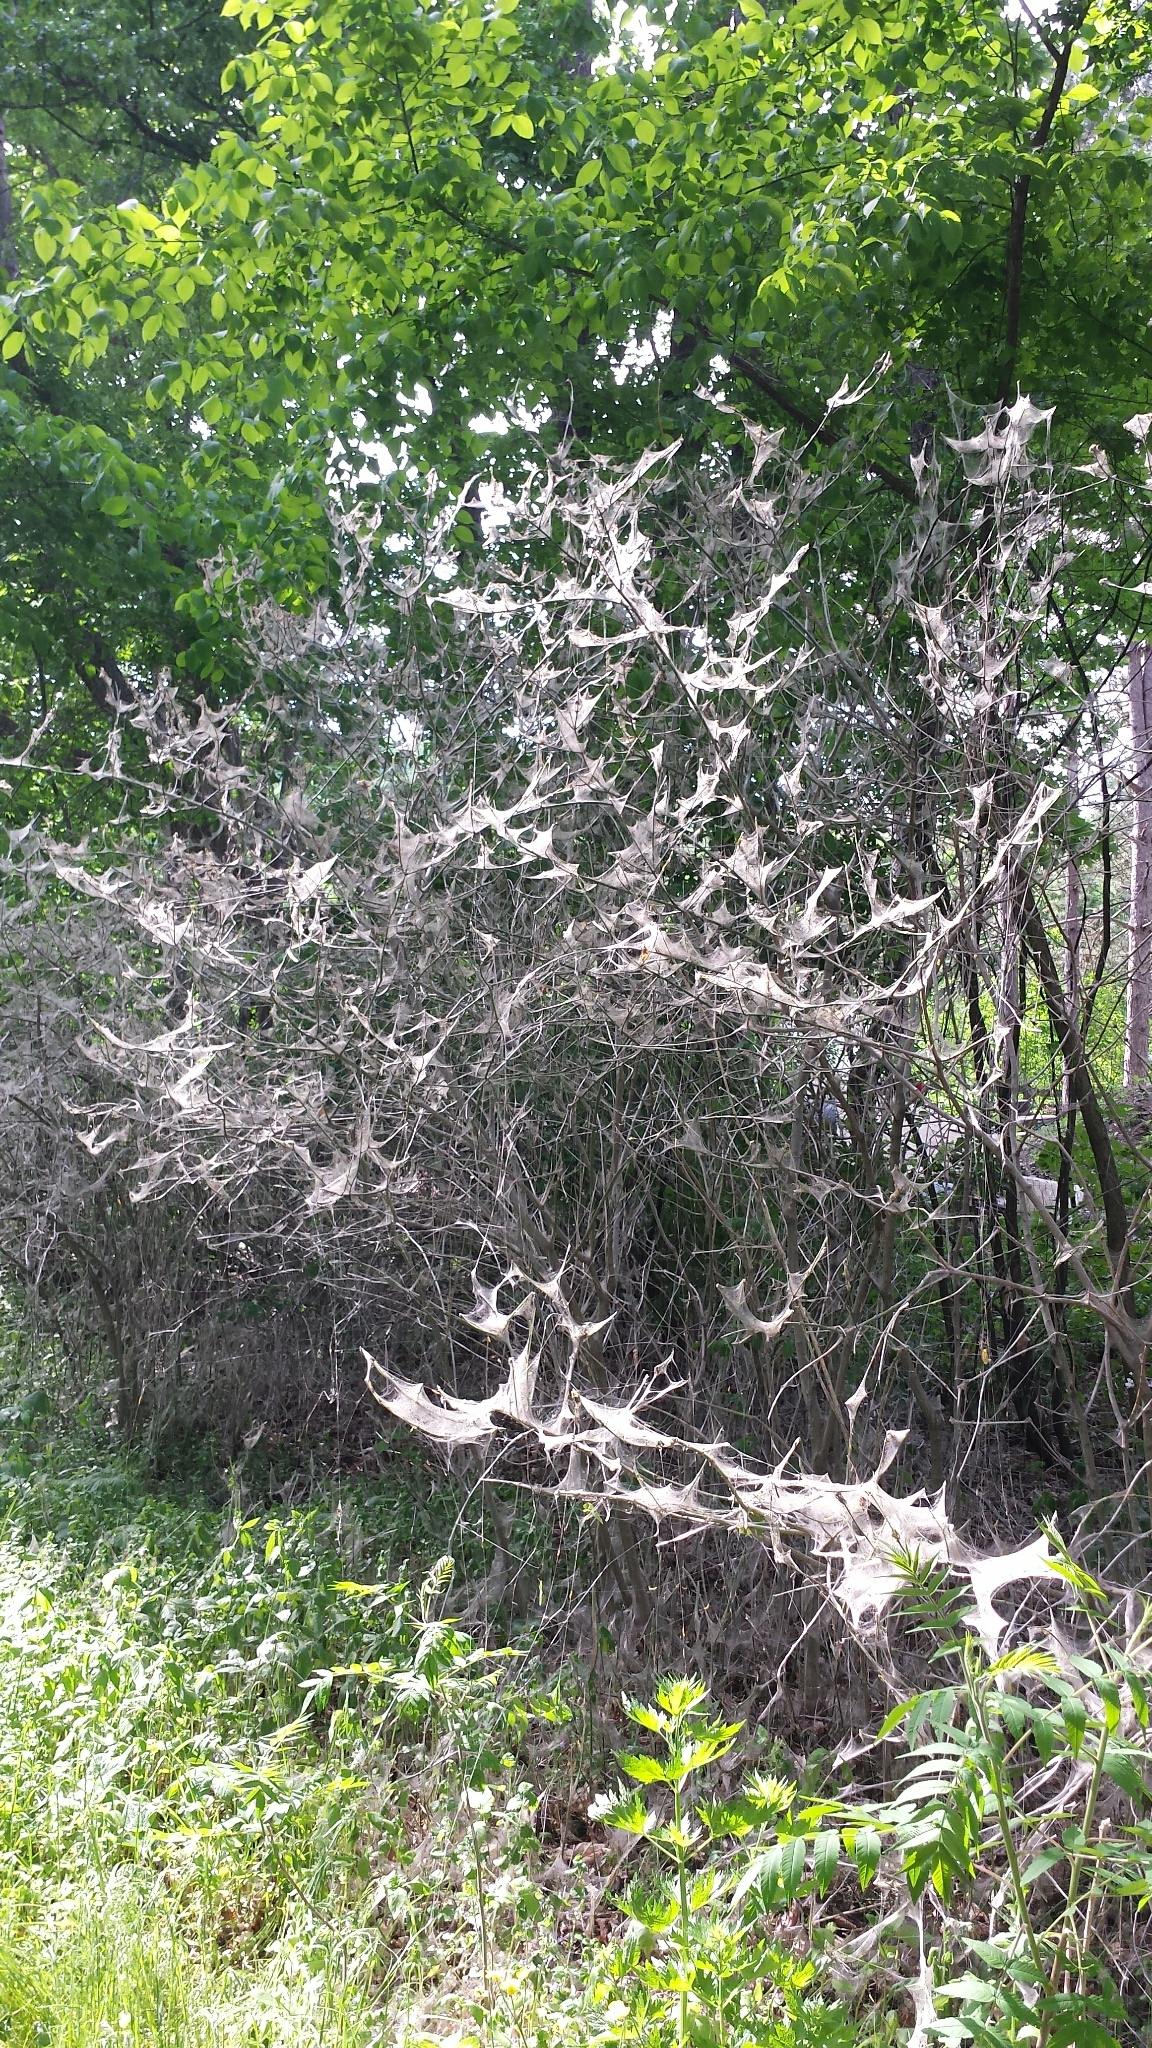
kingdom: Animalia
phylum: Arthropoda
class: Insecta
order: Lepidoptera
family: Yponomeutidae
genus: Yponomeuta
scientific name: Yponomeuta cagnagellus
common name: Spindle ermine
